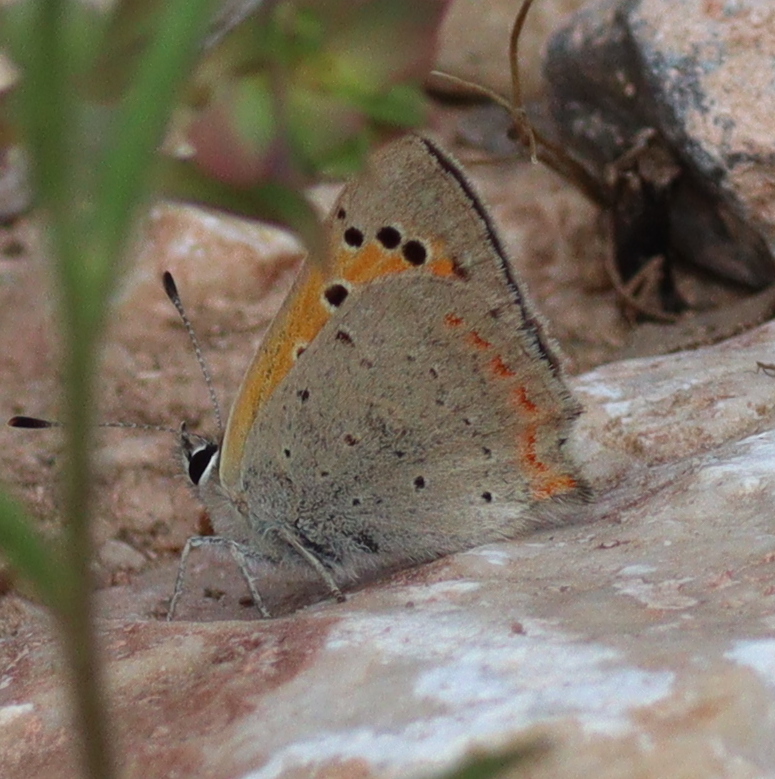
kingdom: Animalia
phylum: Arthropoda
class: Insecta
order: Lepidoptera
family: Lycaenidae
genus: Lycaena
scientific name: Lycaena phlaeas
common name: Small copper
